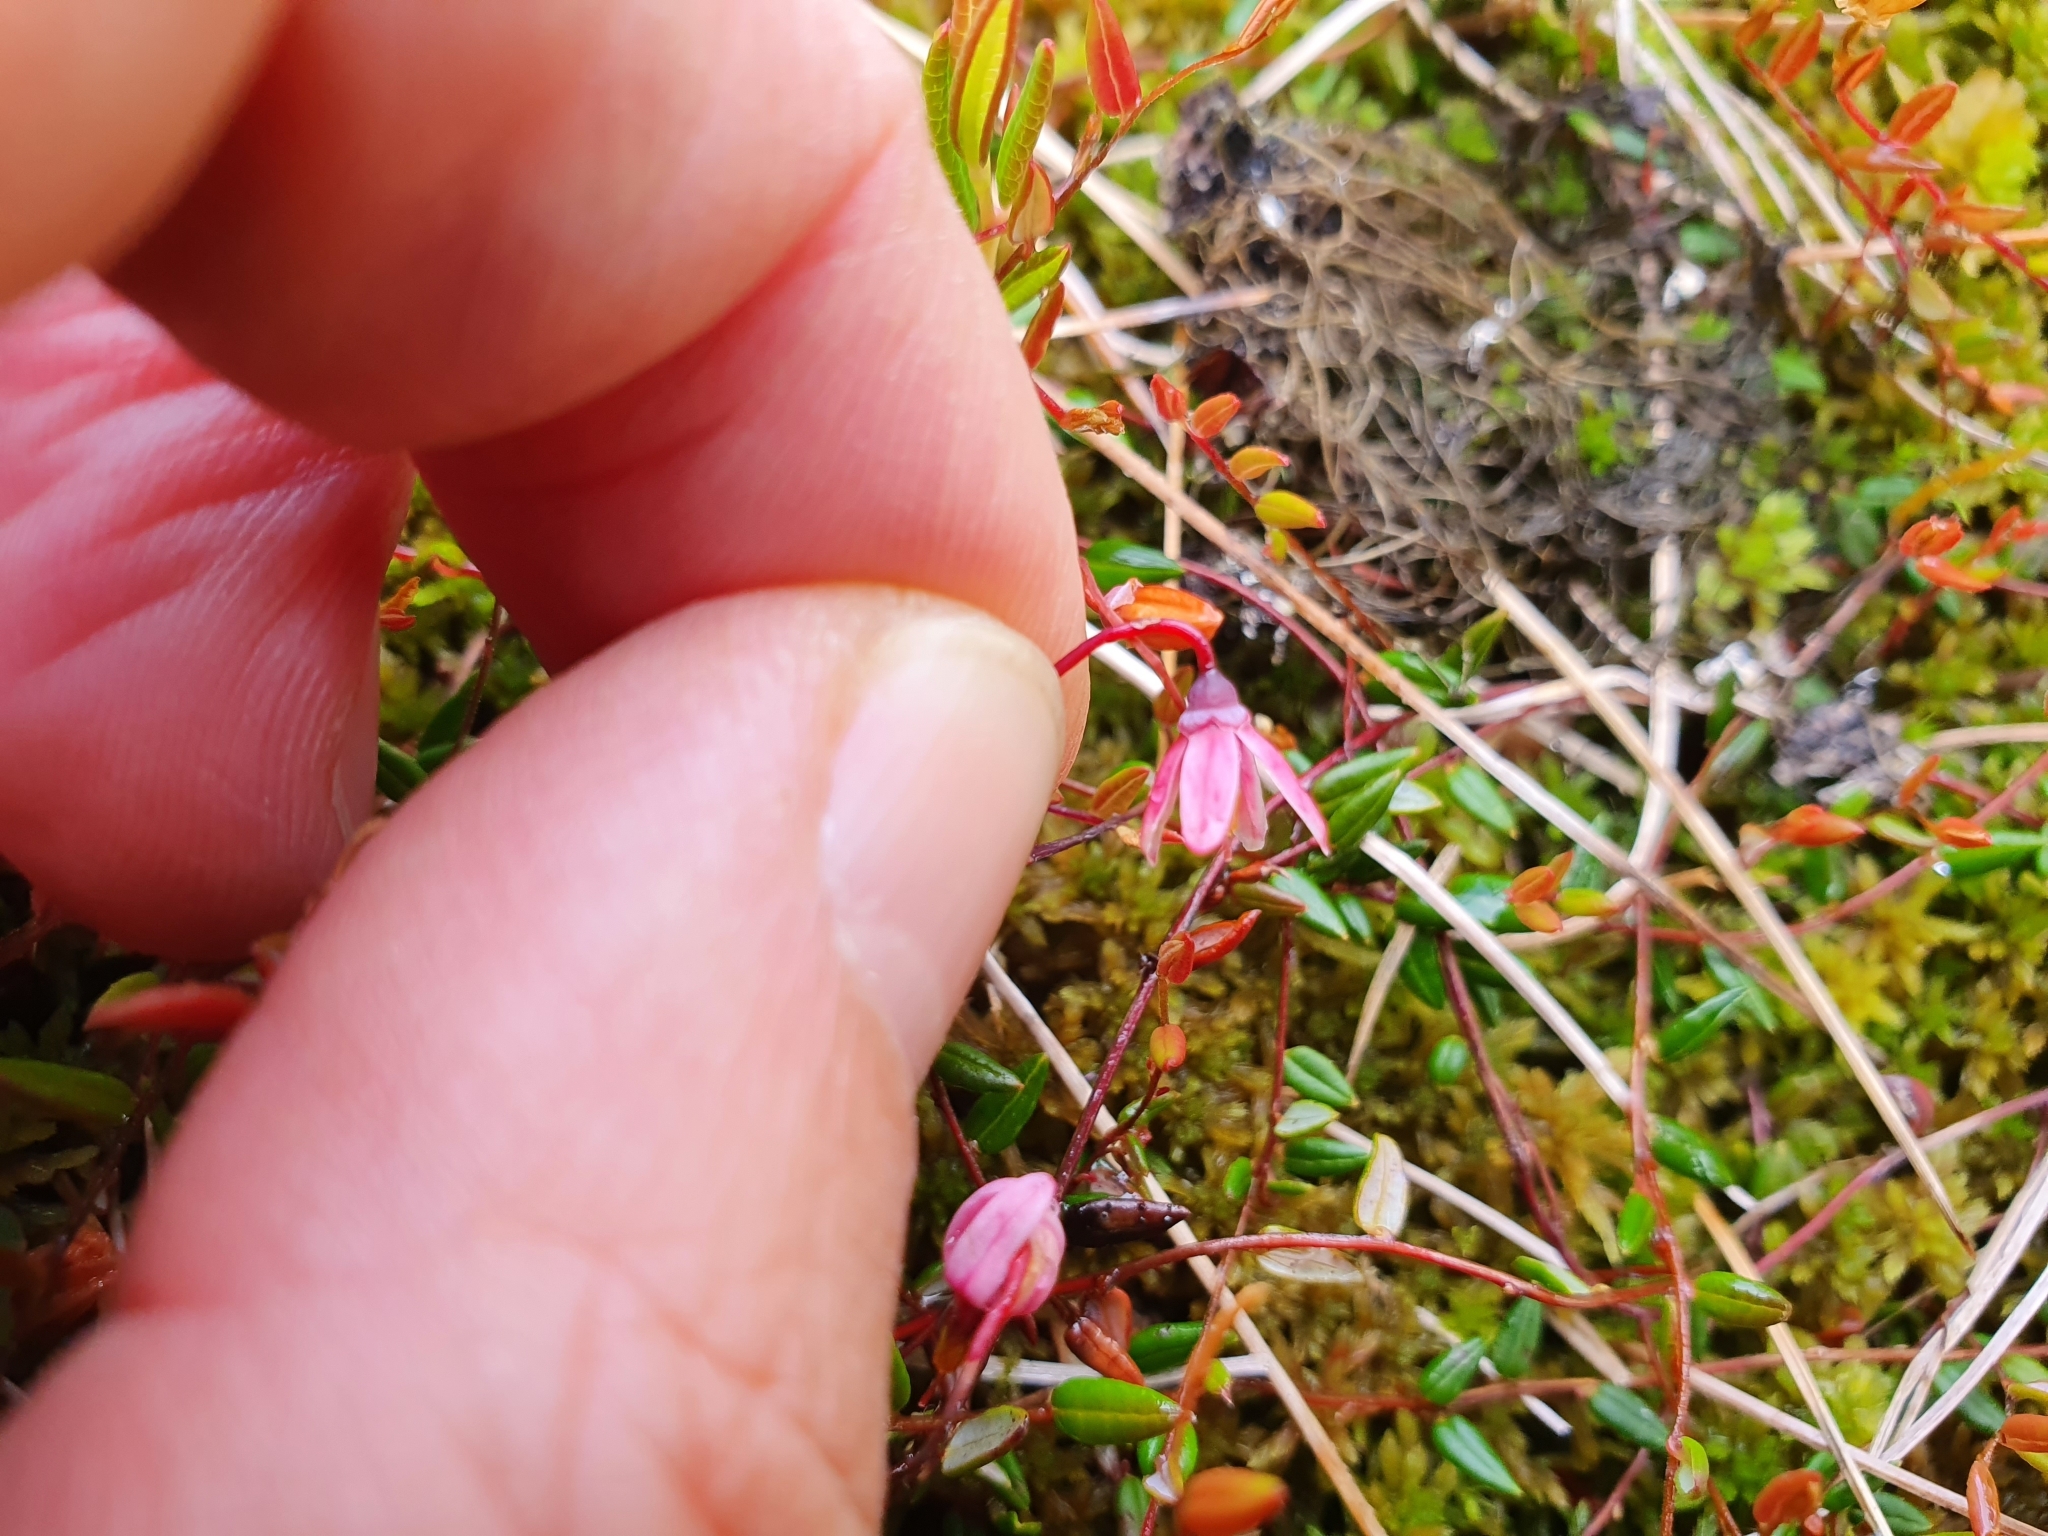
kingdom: Plantae
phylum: Tracheophyta
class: Magnoliopsida
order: Ericales
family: Ericaceae
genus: Vaccinium
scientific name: Vaccinium microcarpum
